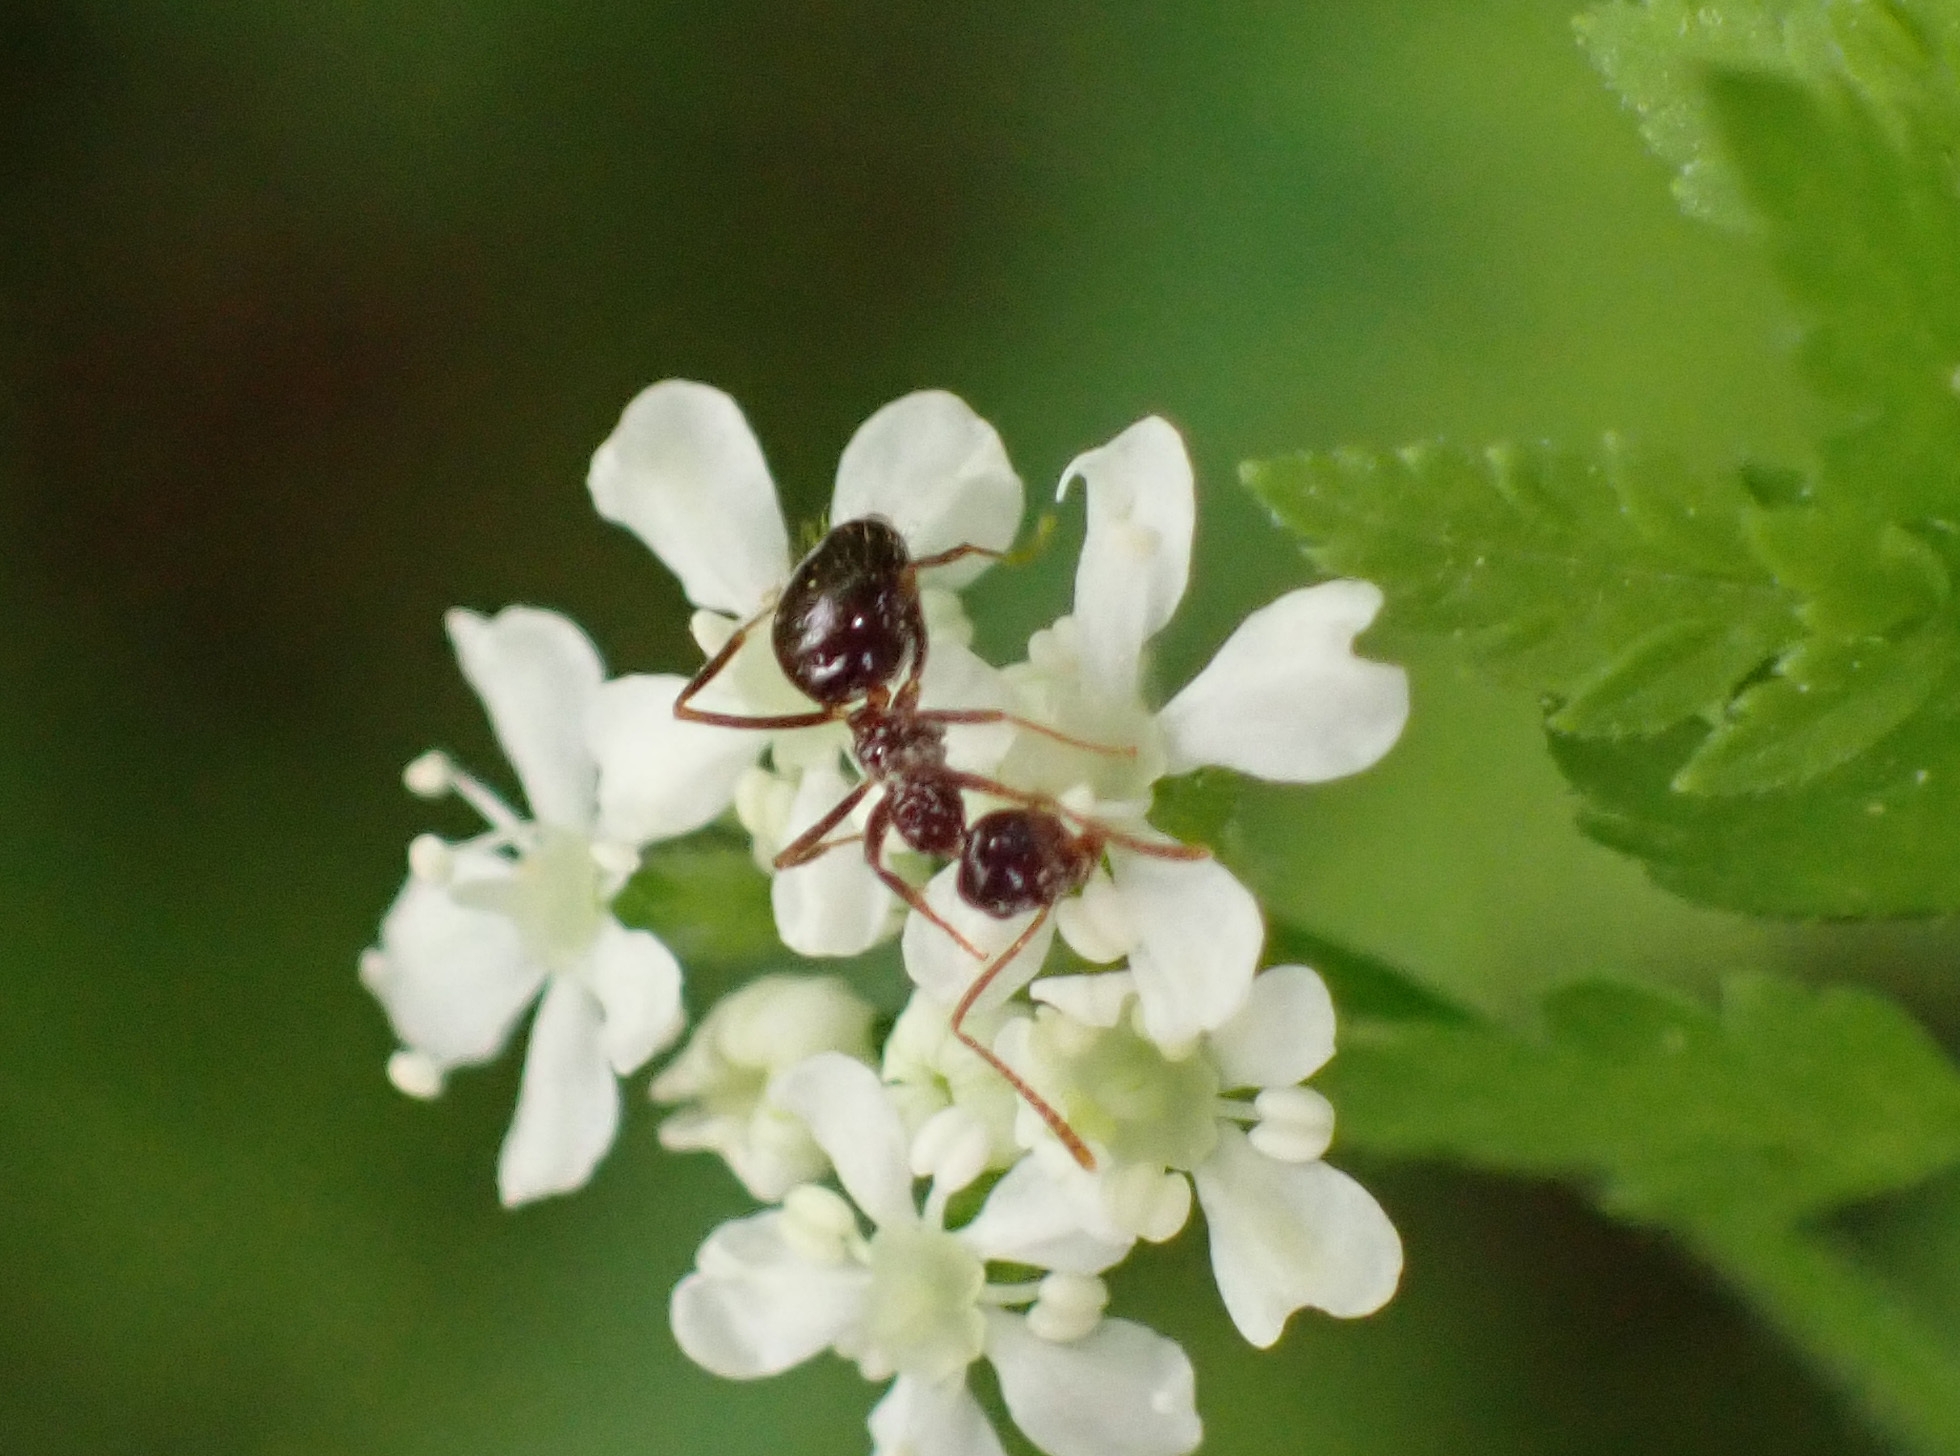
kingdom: Animalia
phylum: Arthropoda
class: Insecta
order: Hymenoptera
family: Formicidae
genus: Prenolepis
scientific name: Prenolepis nitens
